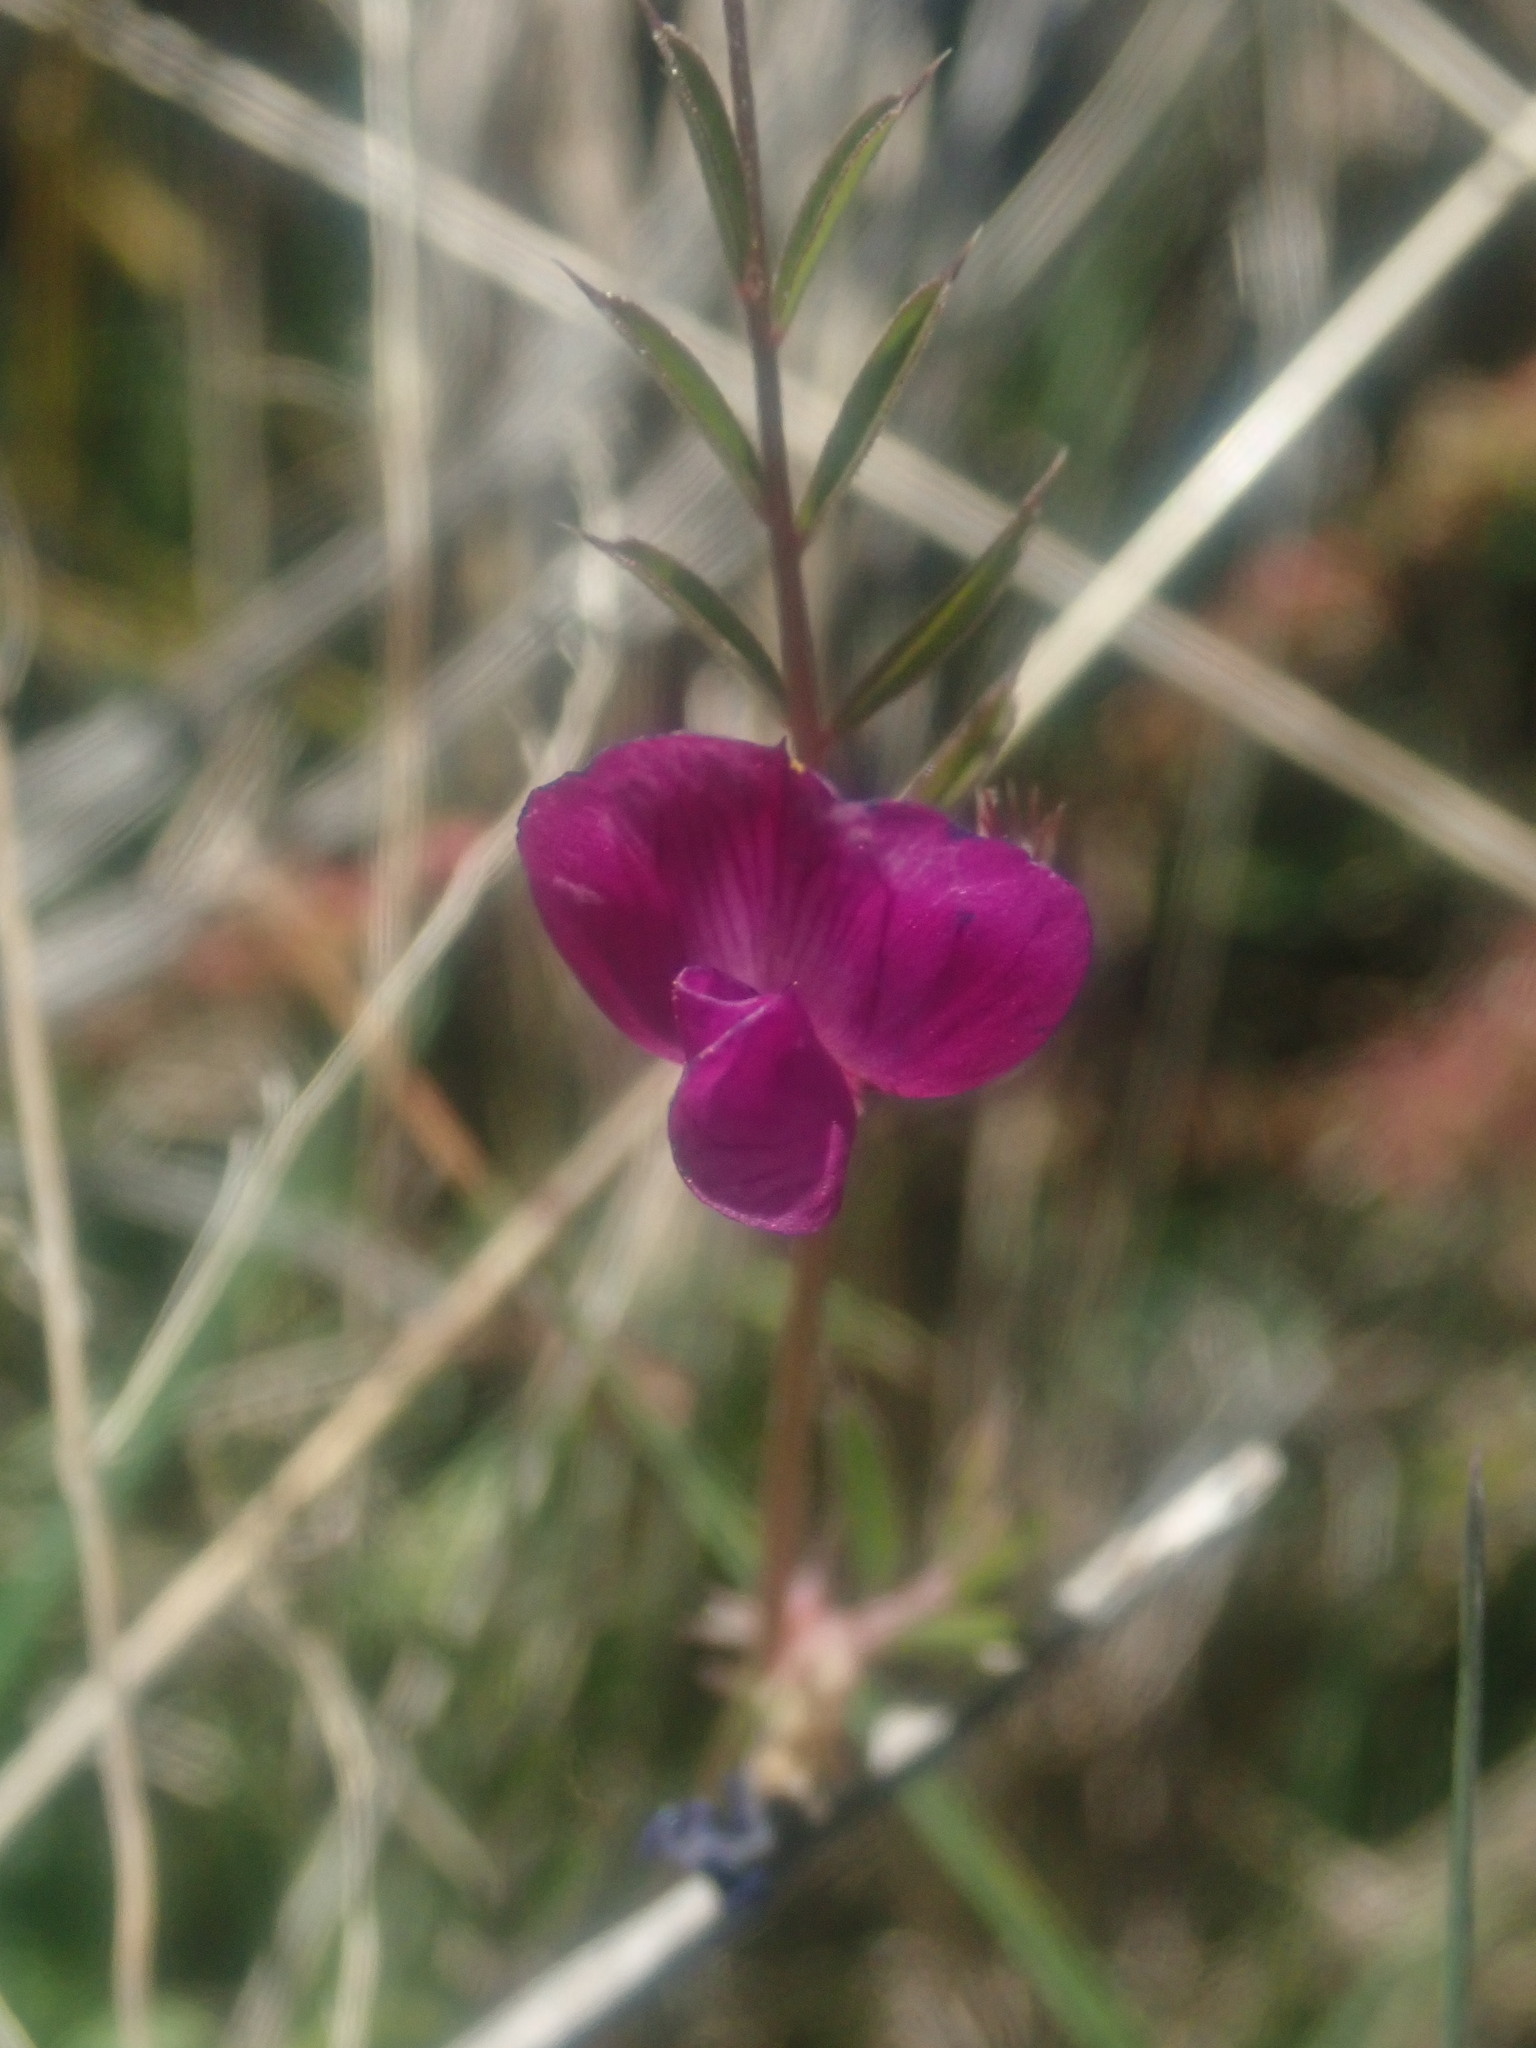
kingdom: Plantae
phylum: Tracheophyta
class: Magnoliopsida
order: Fabales
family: Fabaceae
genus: Vicia
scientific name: Vicia sativa
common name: Garden vetch
